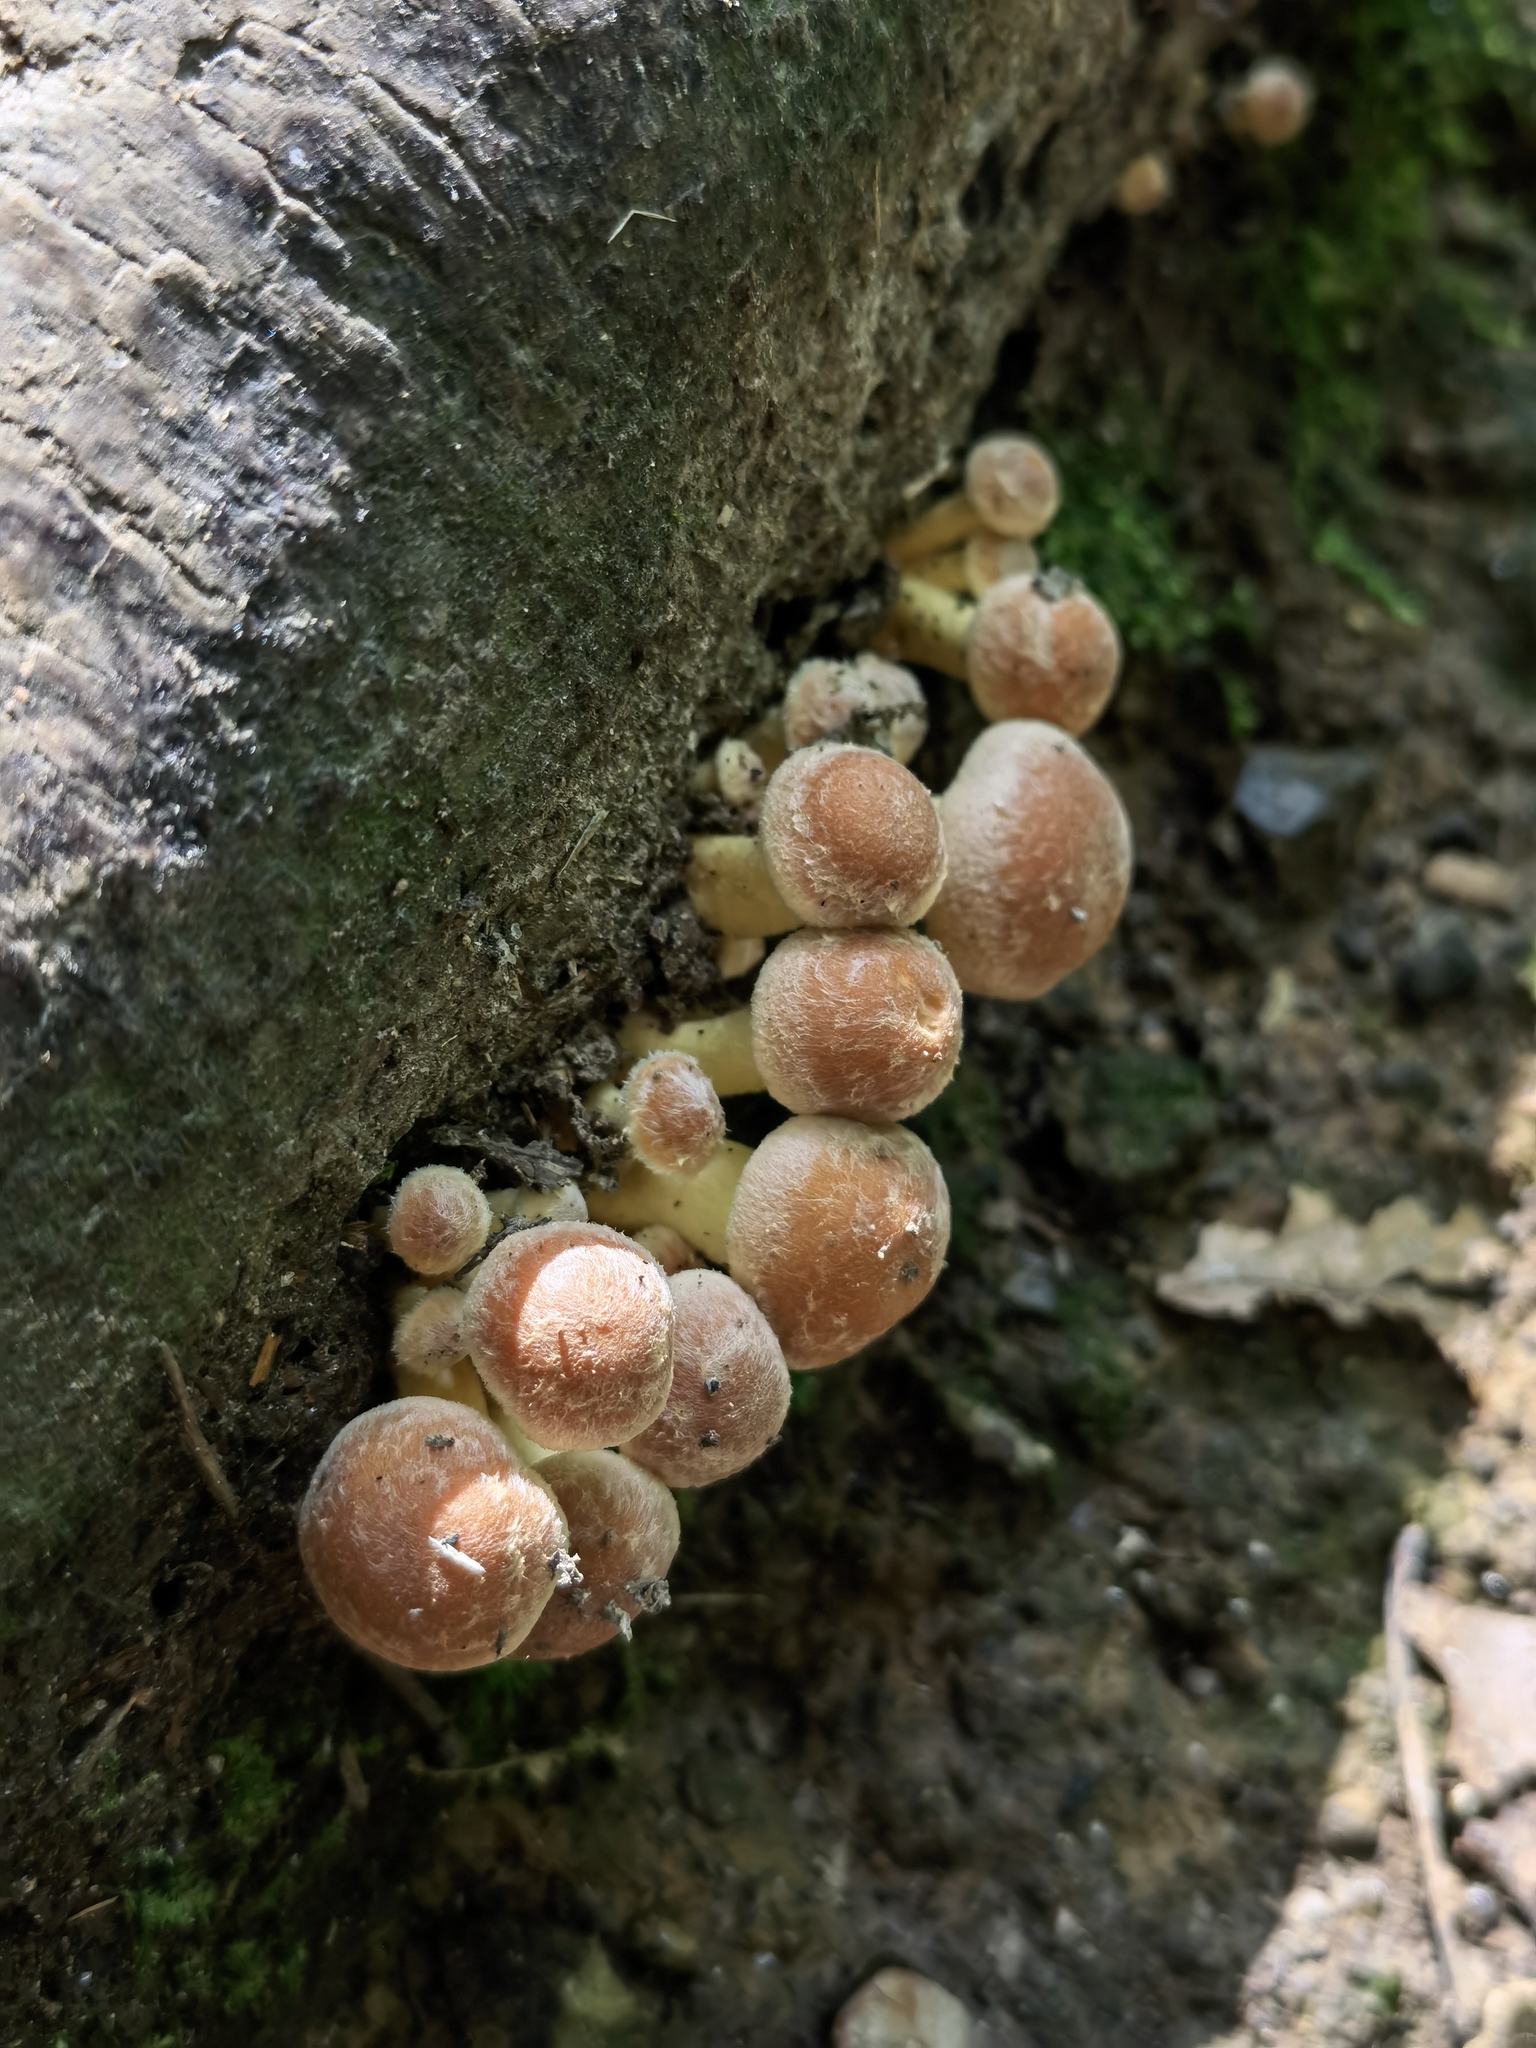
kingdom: Fungi
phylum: Basidiomycota
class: Agaricomycetes
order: Agaricales
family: Strophariaceae
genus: Hypholoma
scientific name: Hypholoma lateritium
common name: Brick caps
